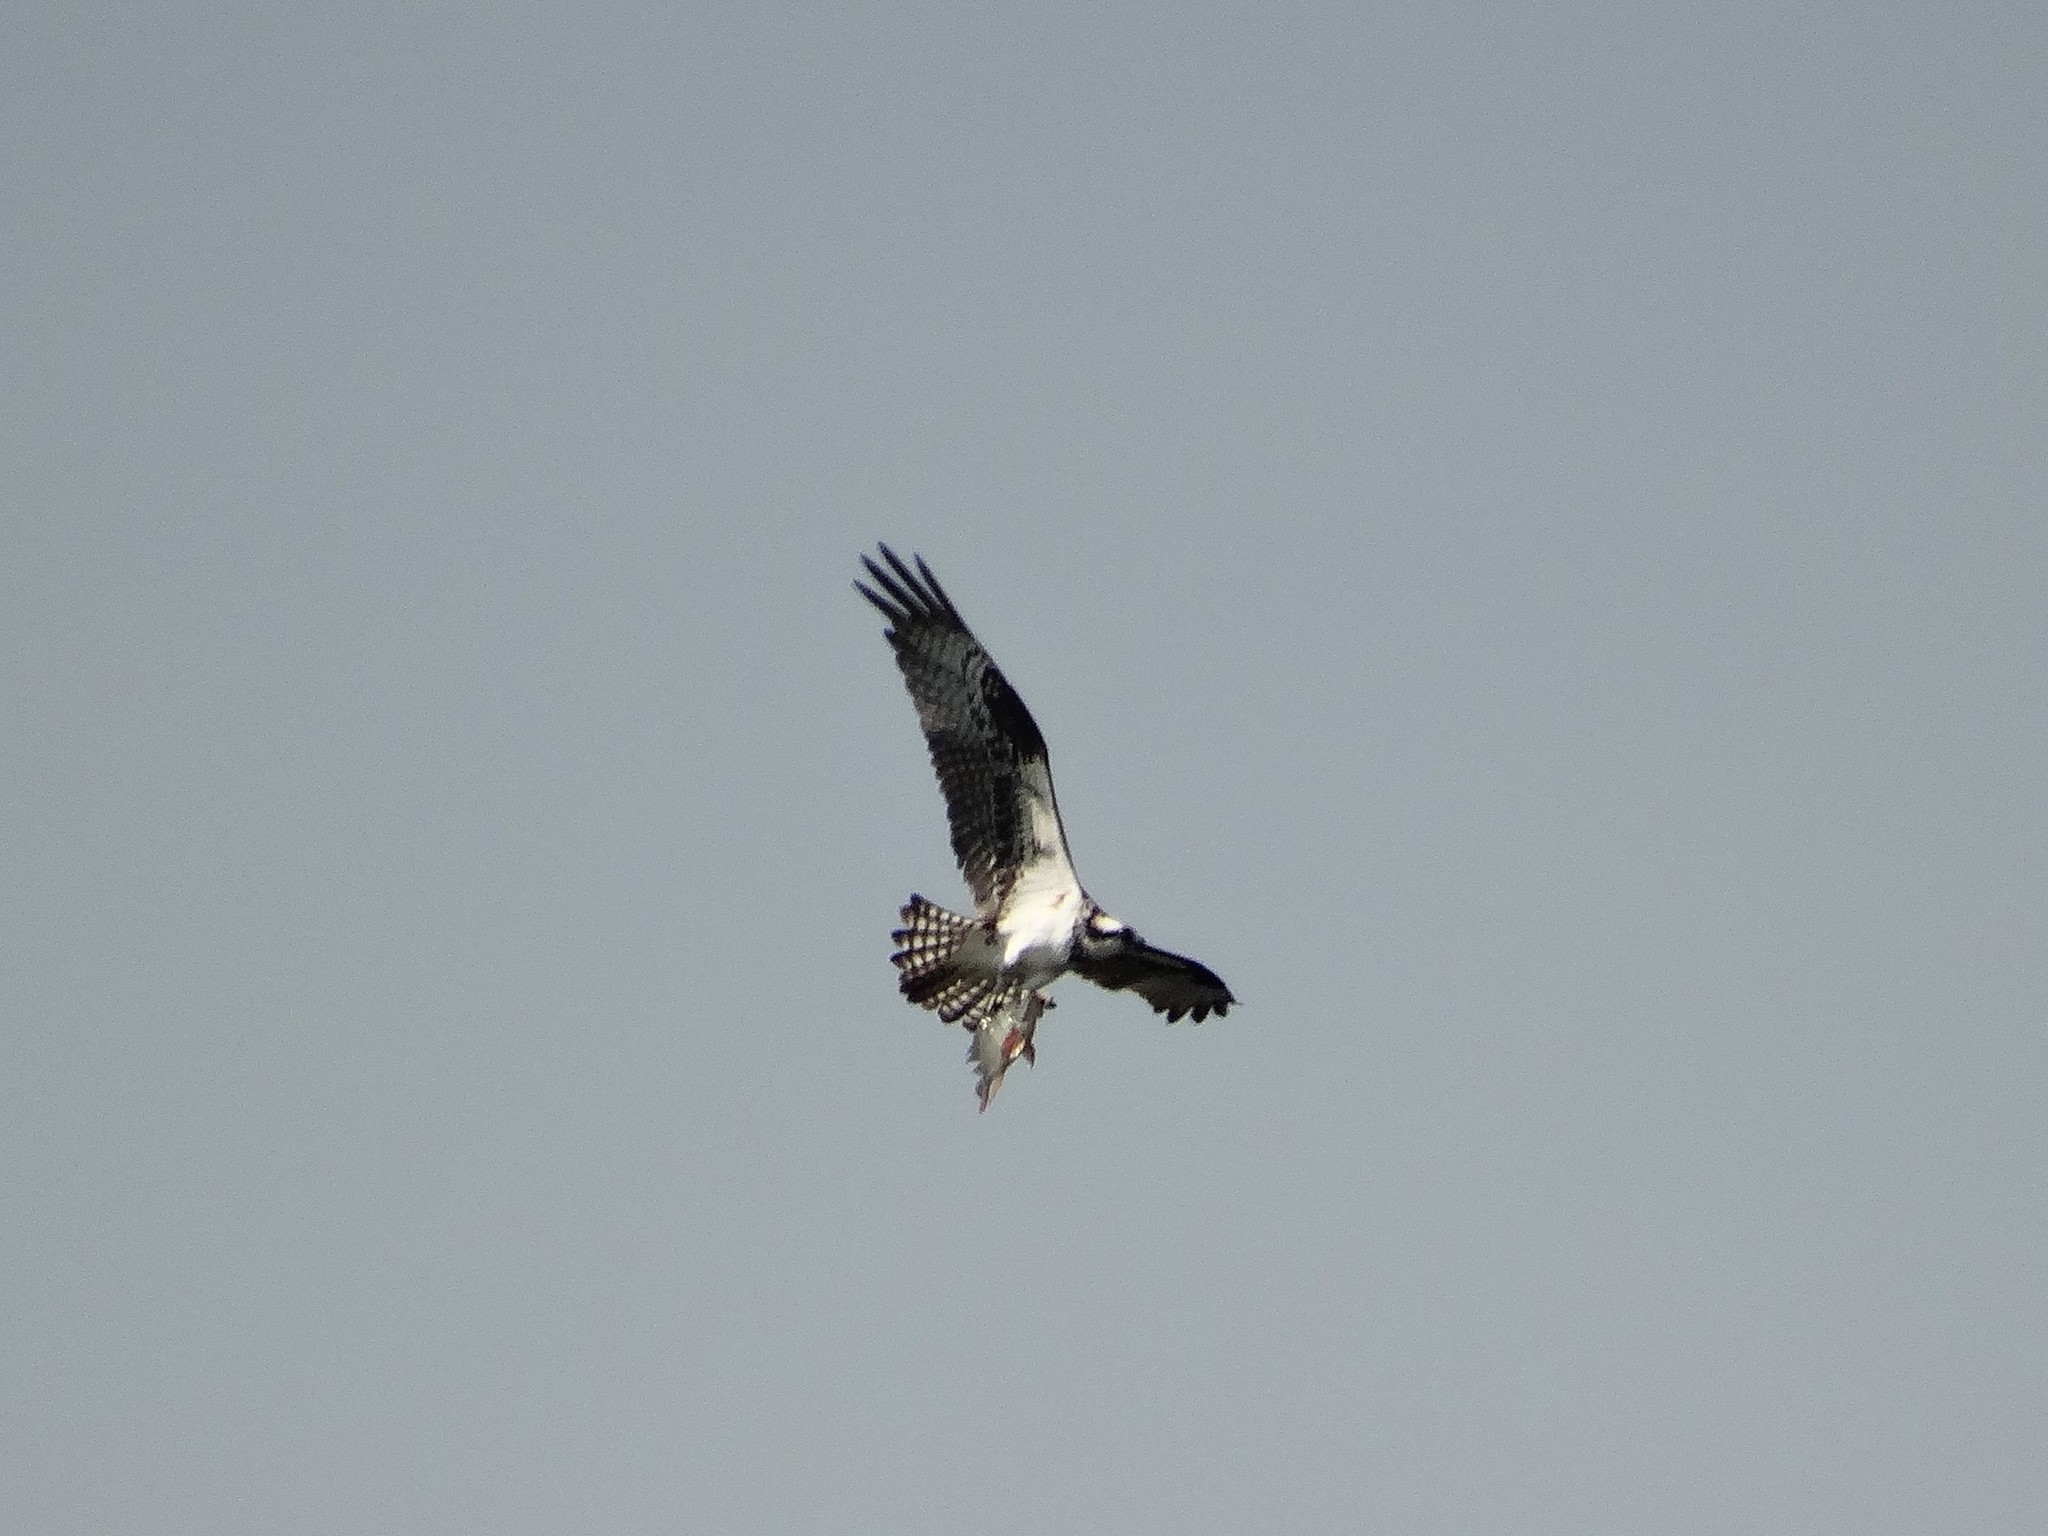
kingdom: Animalia
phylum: Chordata
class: Aves
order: Accipitriformes
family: Pandionidae
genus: Pandion
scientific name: Pandion haliaetus
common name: Osprey
